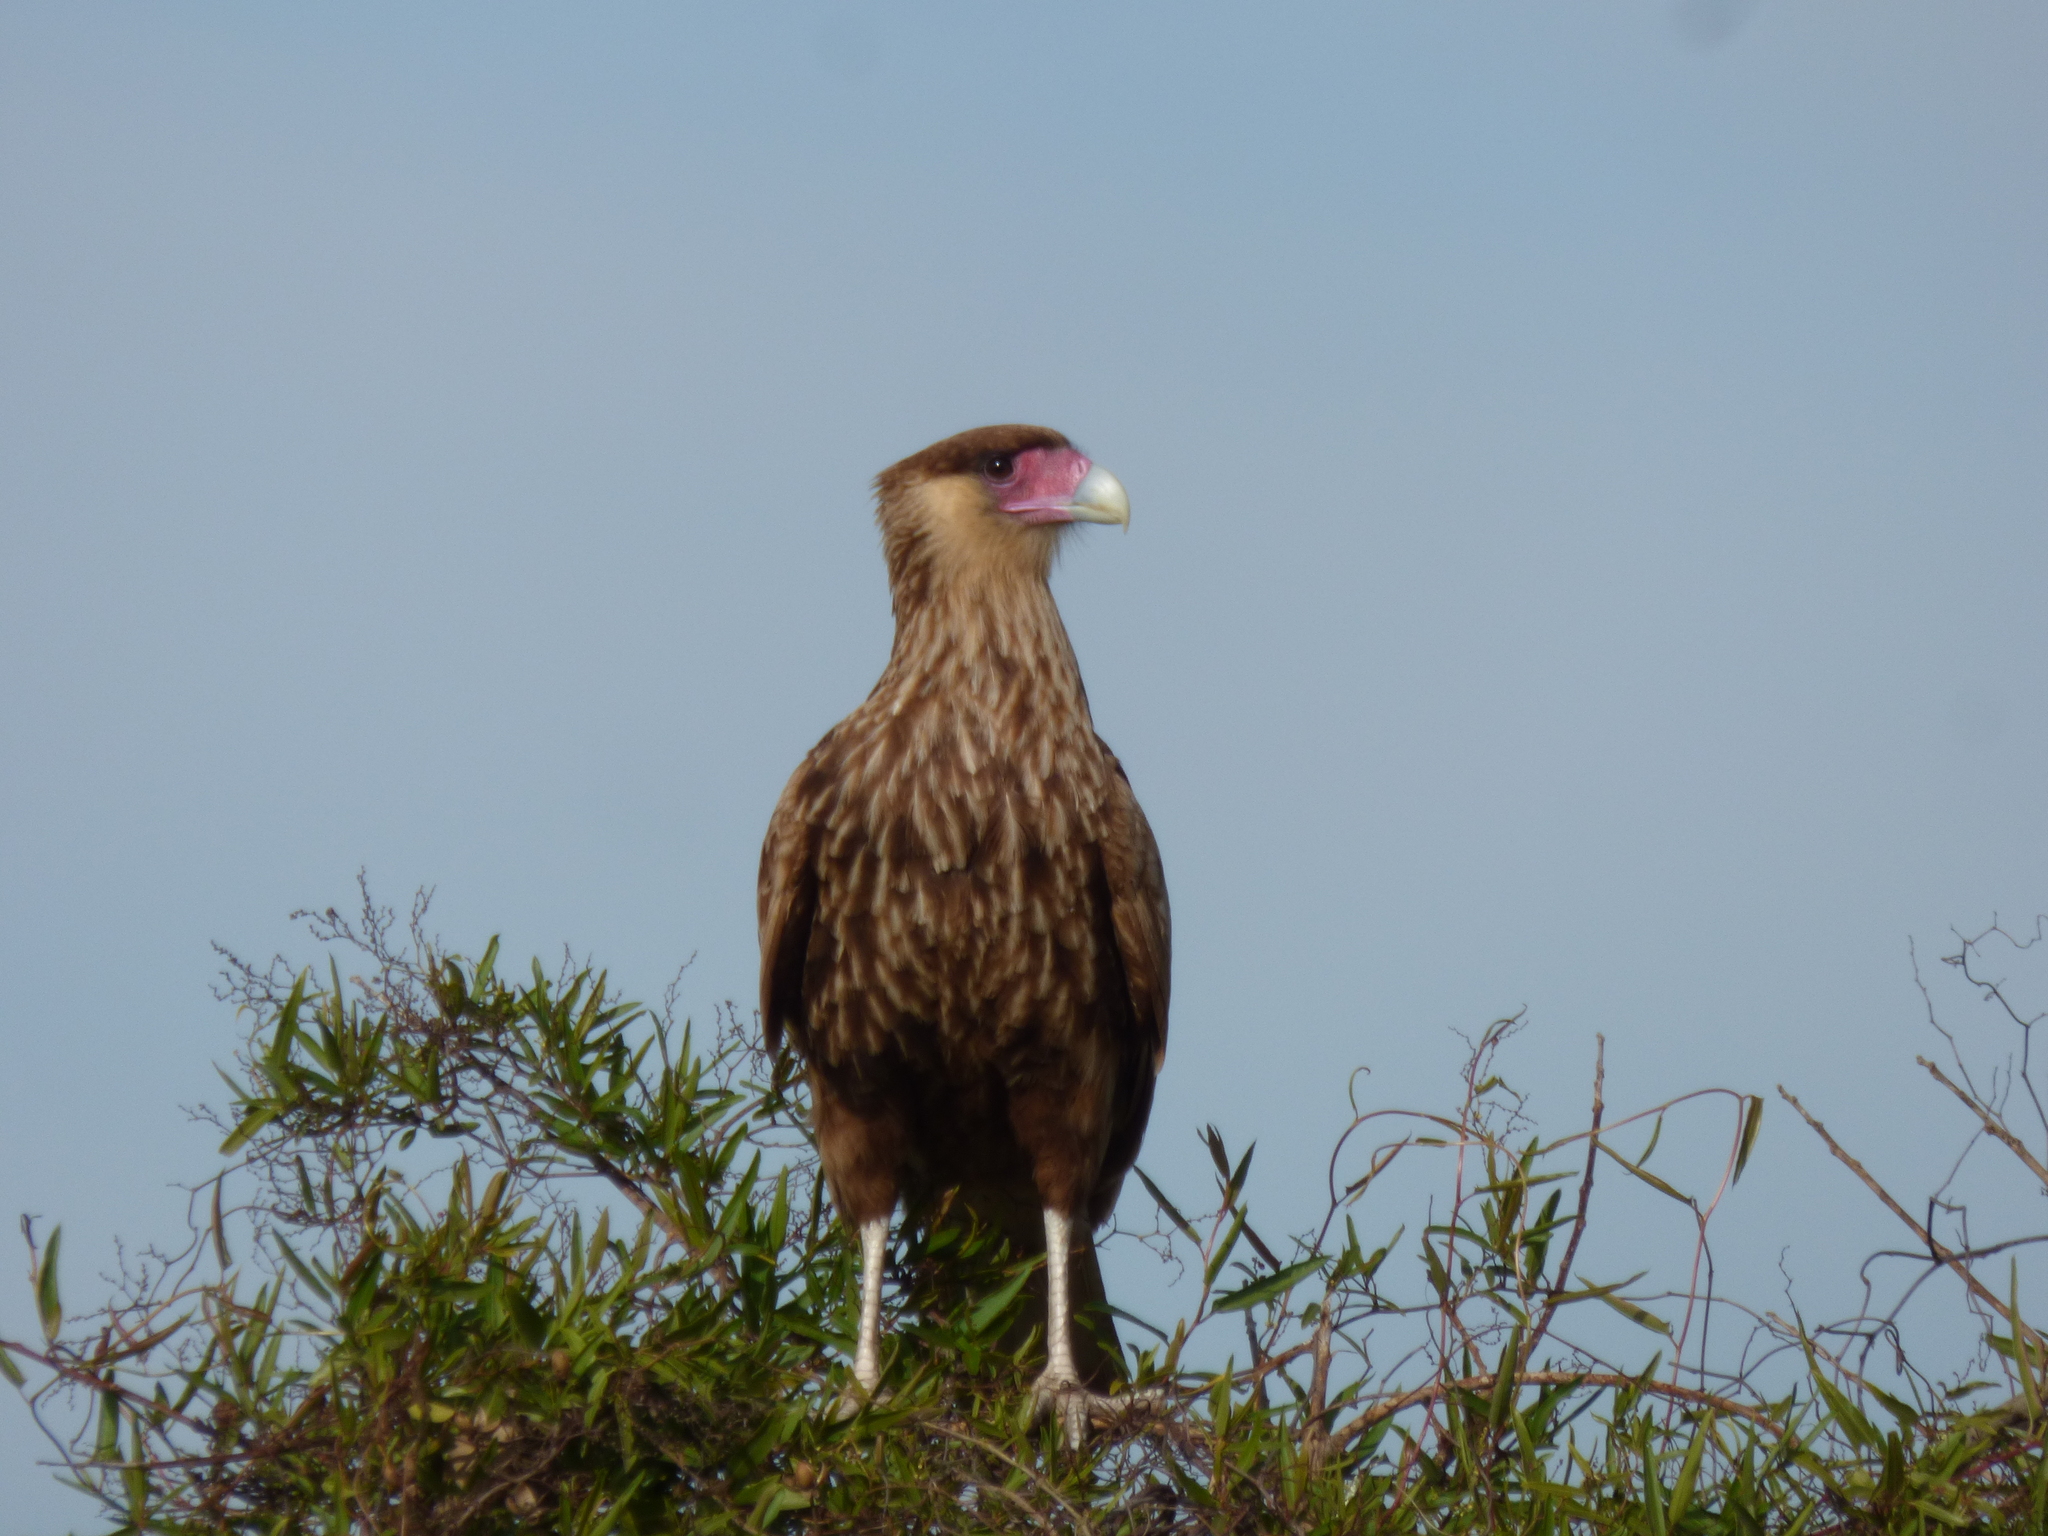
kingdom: Animalia
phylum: Chordata
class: Aves
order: Falconiformes
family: Falconidae
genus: Caracara
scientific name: Caracara plancus
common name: Southern caracara
